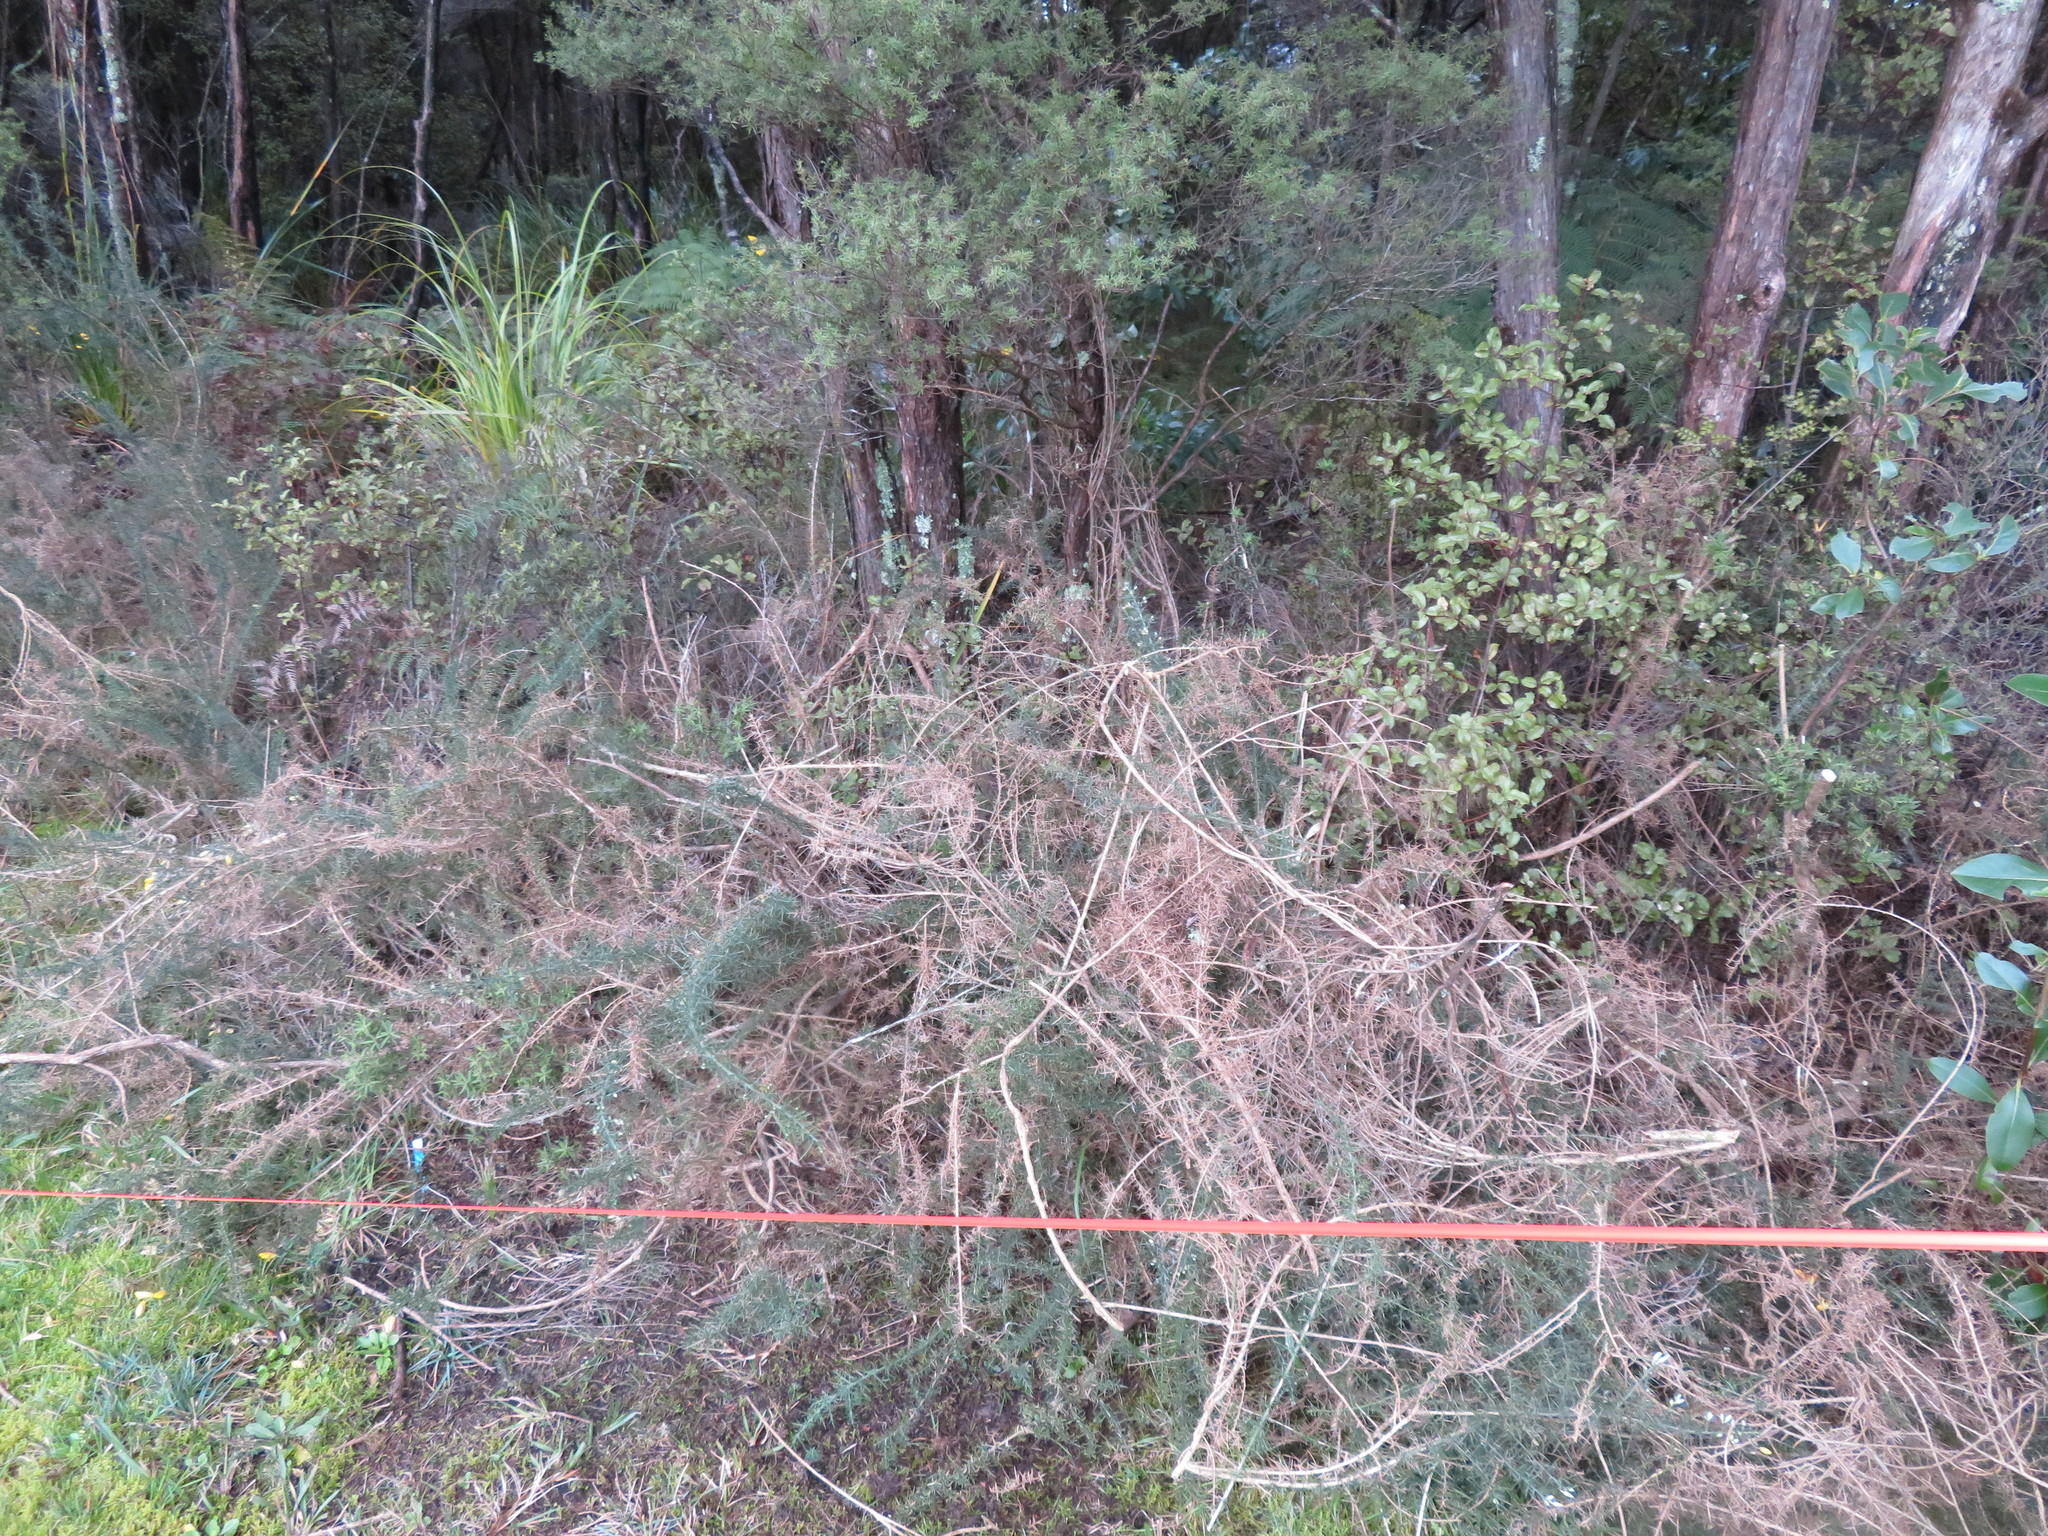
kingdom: Plantae
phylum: Tracheophyta
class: Magnoliopsida
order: Ericales
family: Primulaceae
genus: Myrsine
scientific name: Myrsine australis
